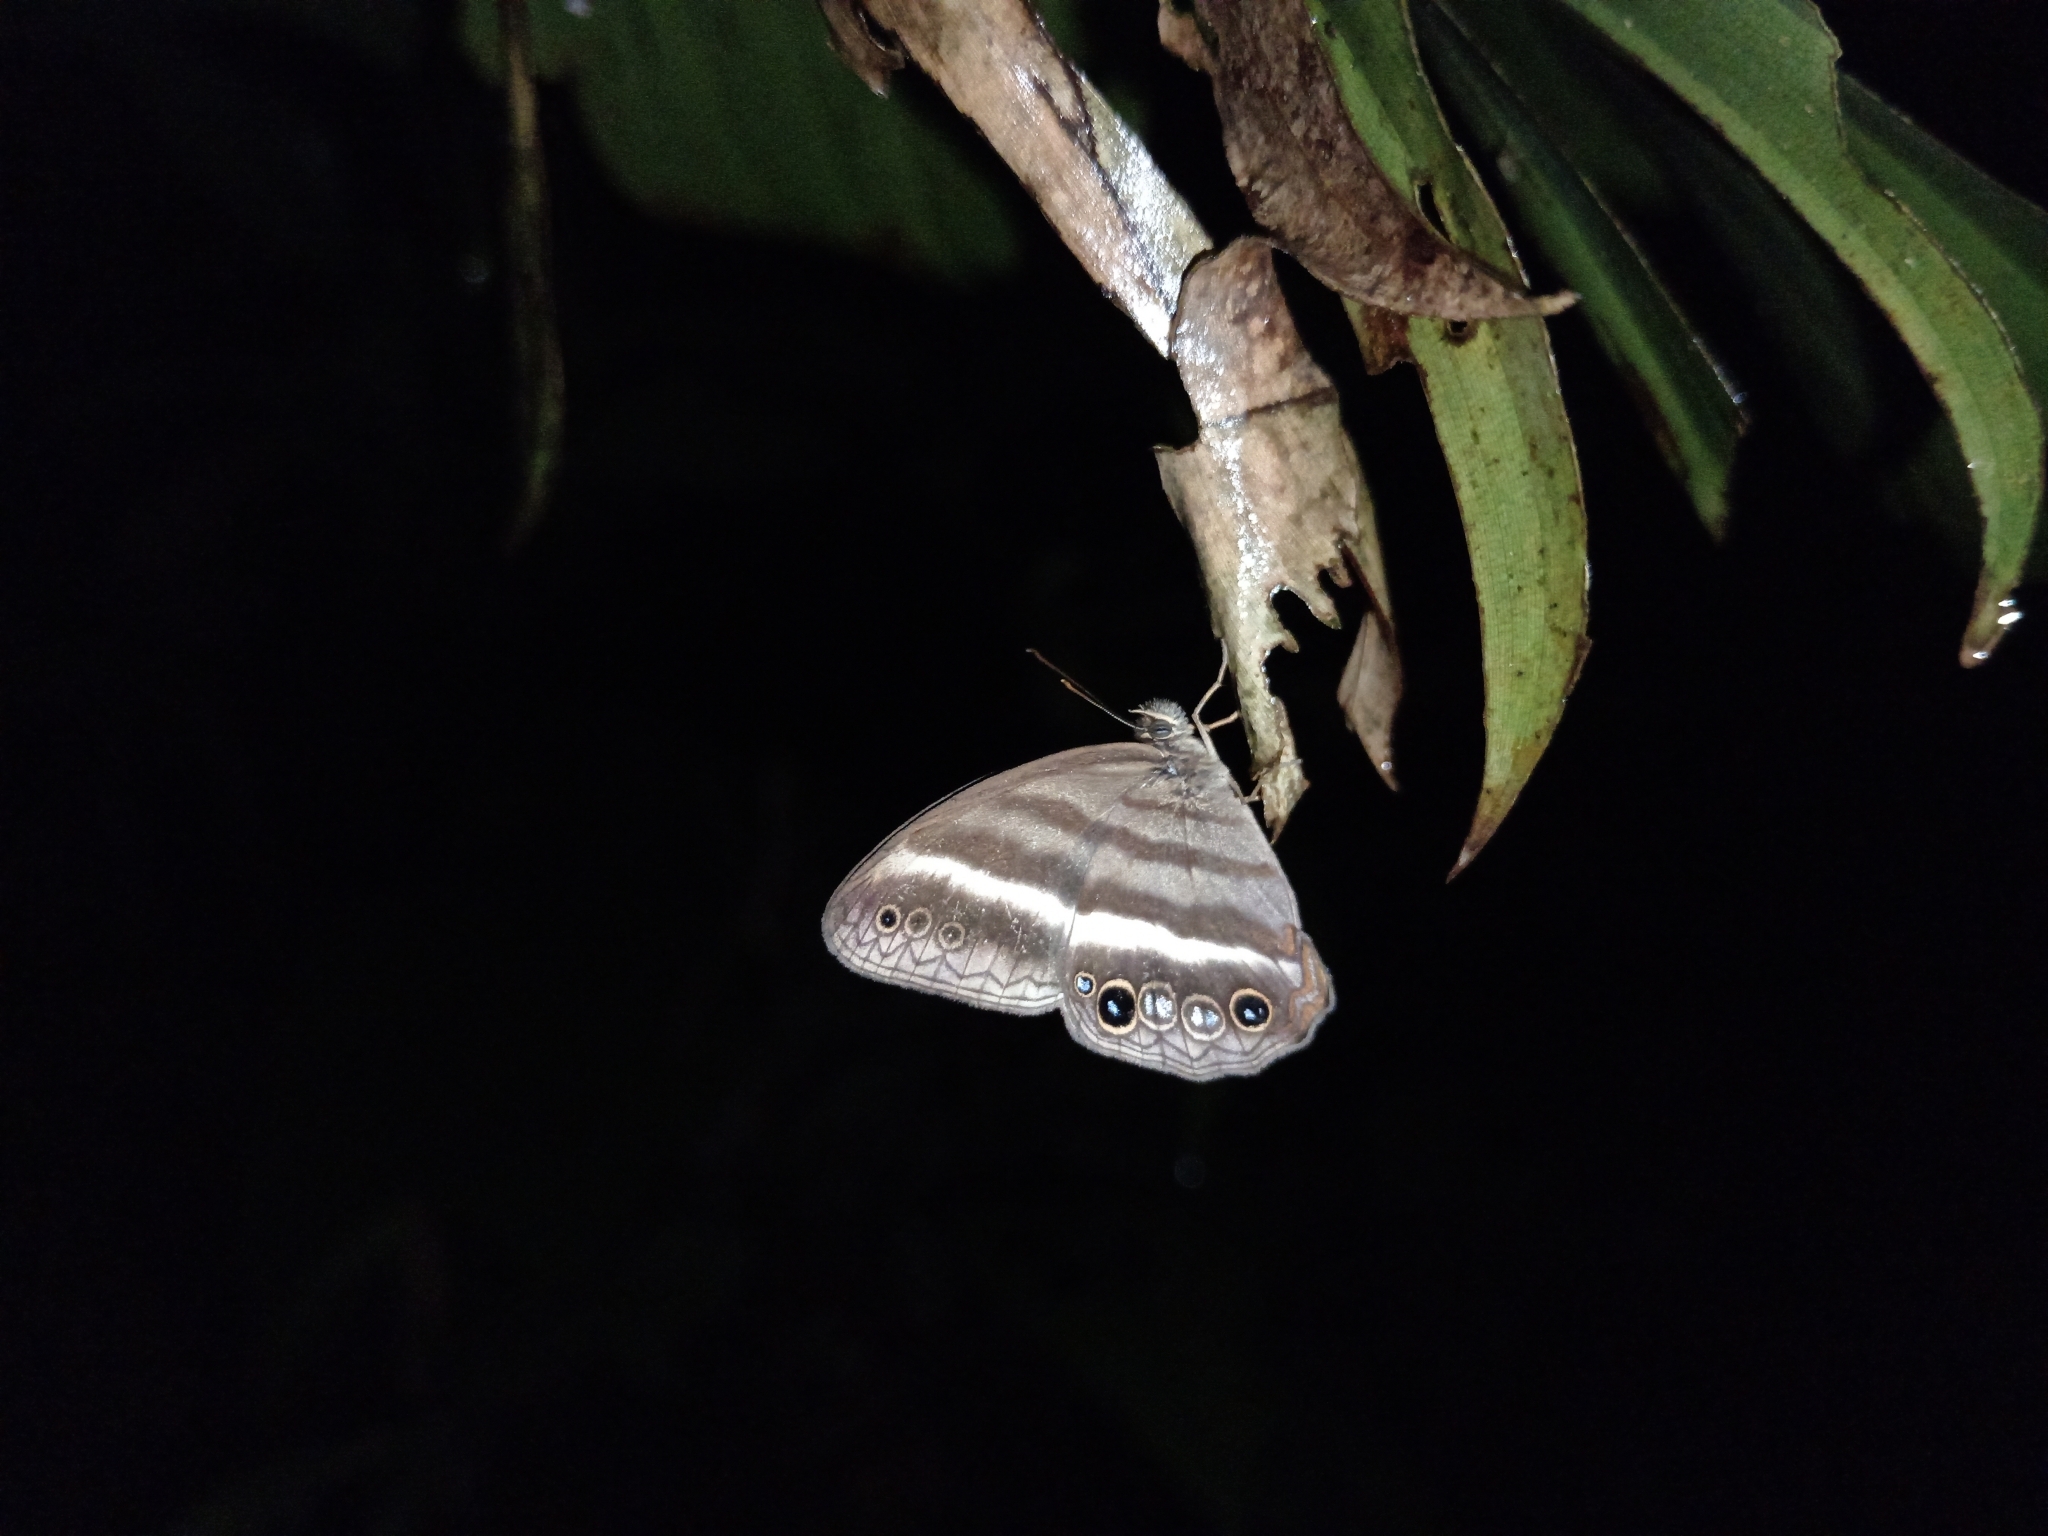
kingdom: Animalia
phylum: Arthropoda
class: Insecta
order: Lepidoptera
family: Nymphalidae
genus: Pareuptychia
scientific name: Pareuptychia summandosa
